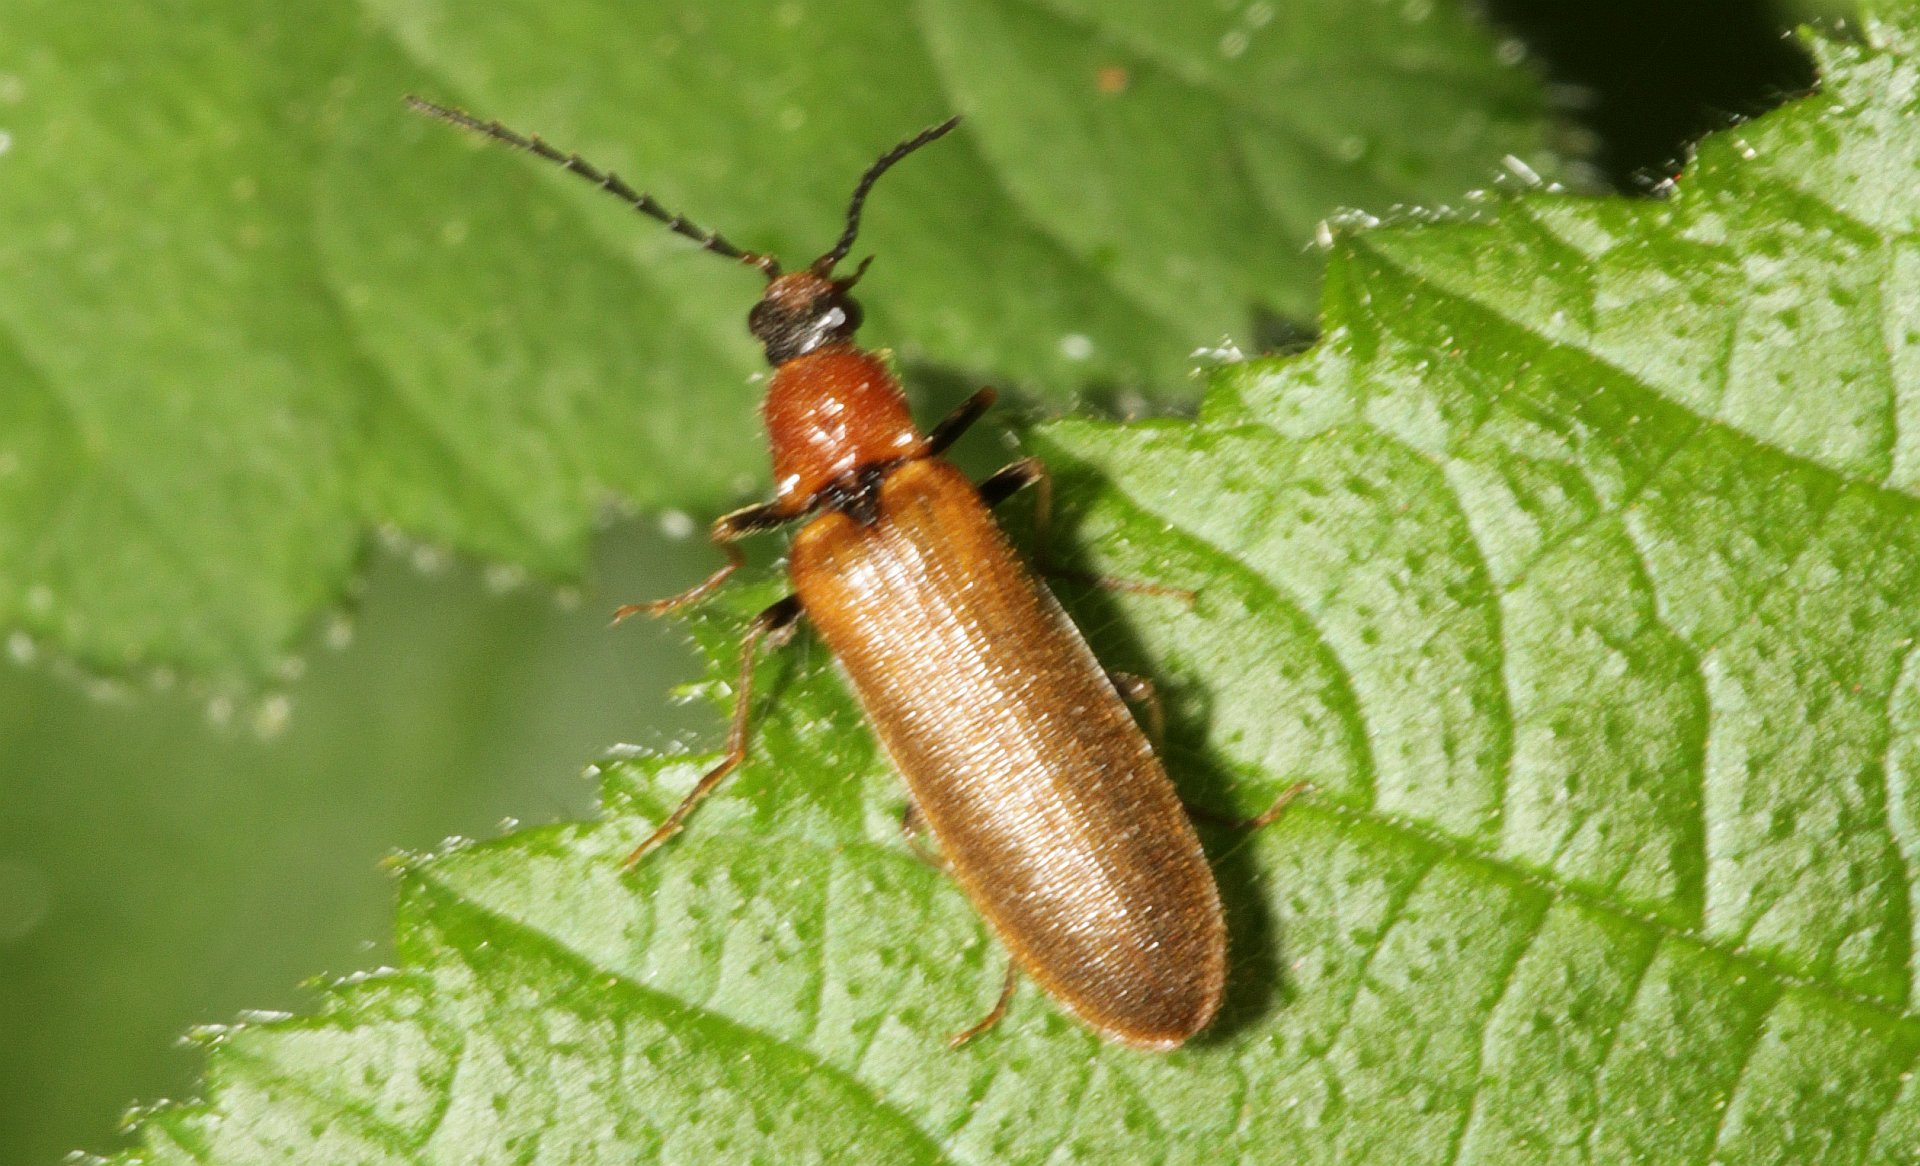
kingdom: Animalia
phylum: Arthropoda
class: Insecta
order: Coleoptera
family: Elateridae
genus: Denticollis
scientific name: Denticollis linearis
